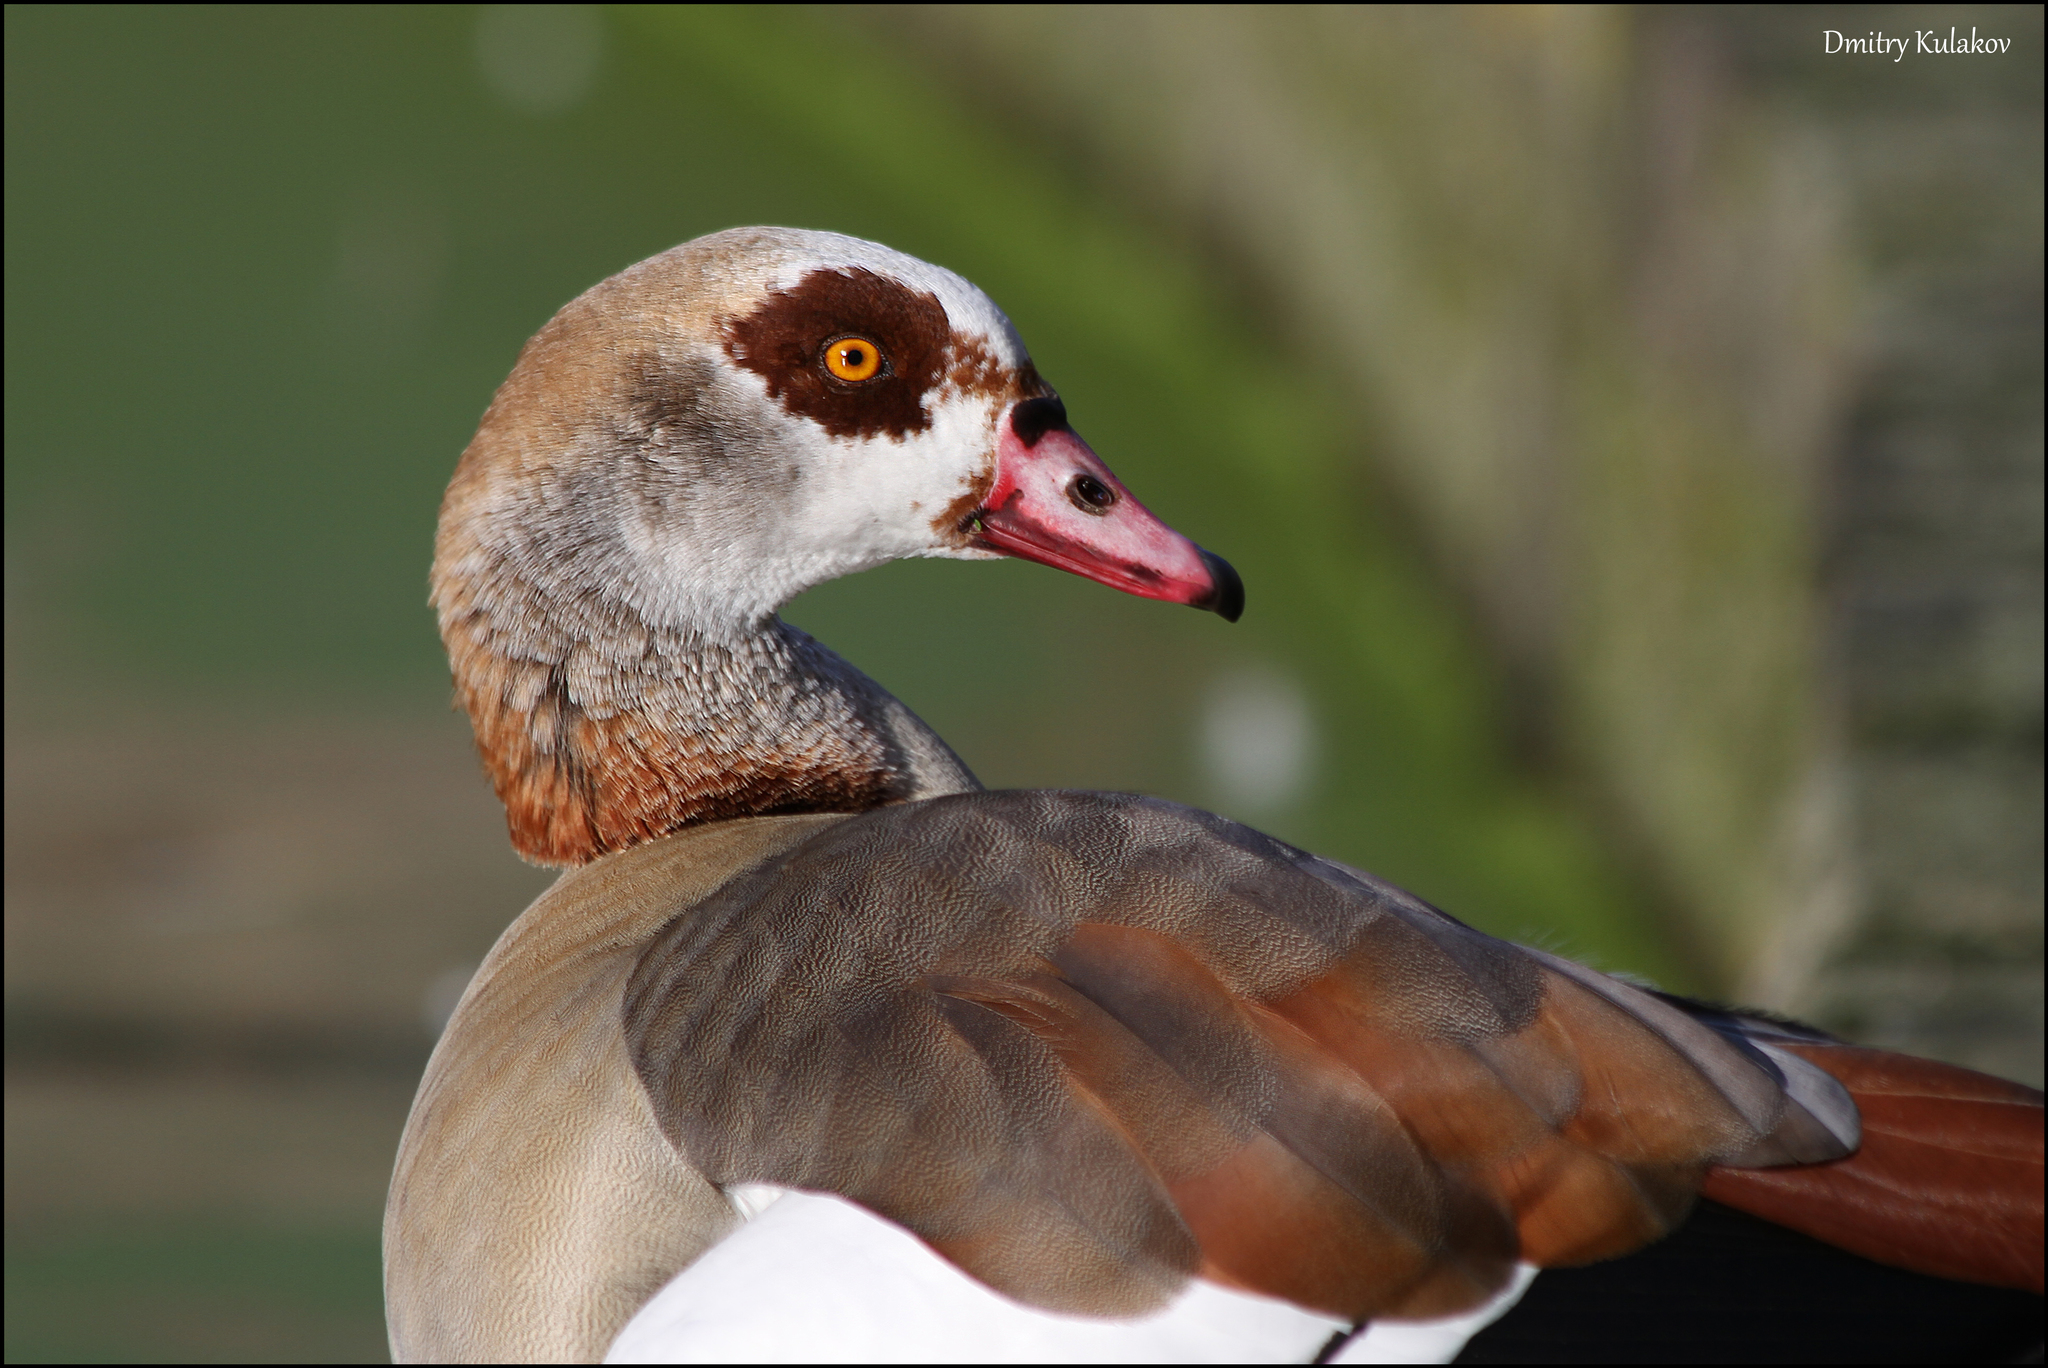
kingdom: Animalia
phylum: Chordata
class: Aves
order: Anseriformes
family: Anatidae
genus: Alopochen
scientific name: Alopochen aegyptiaca
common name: Egyptian goose
